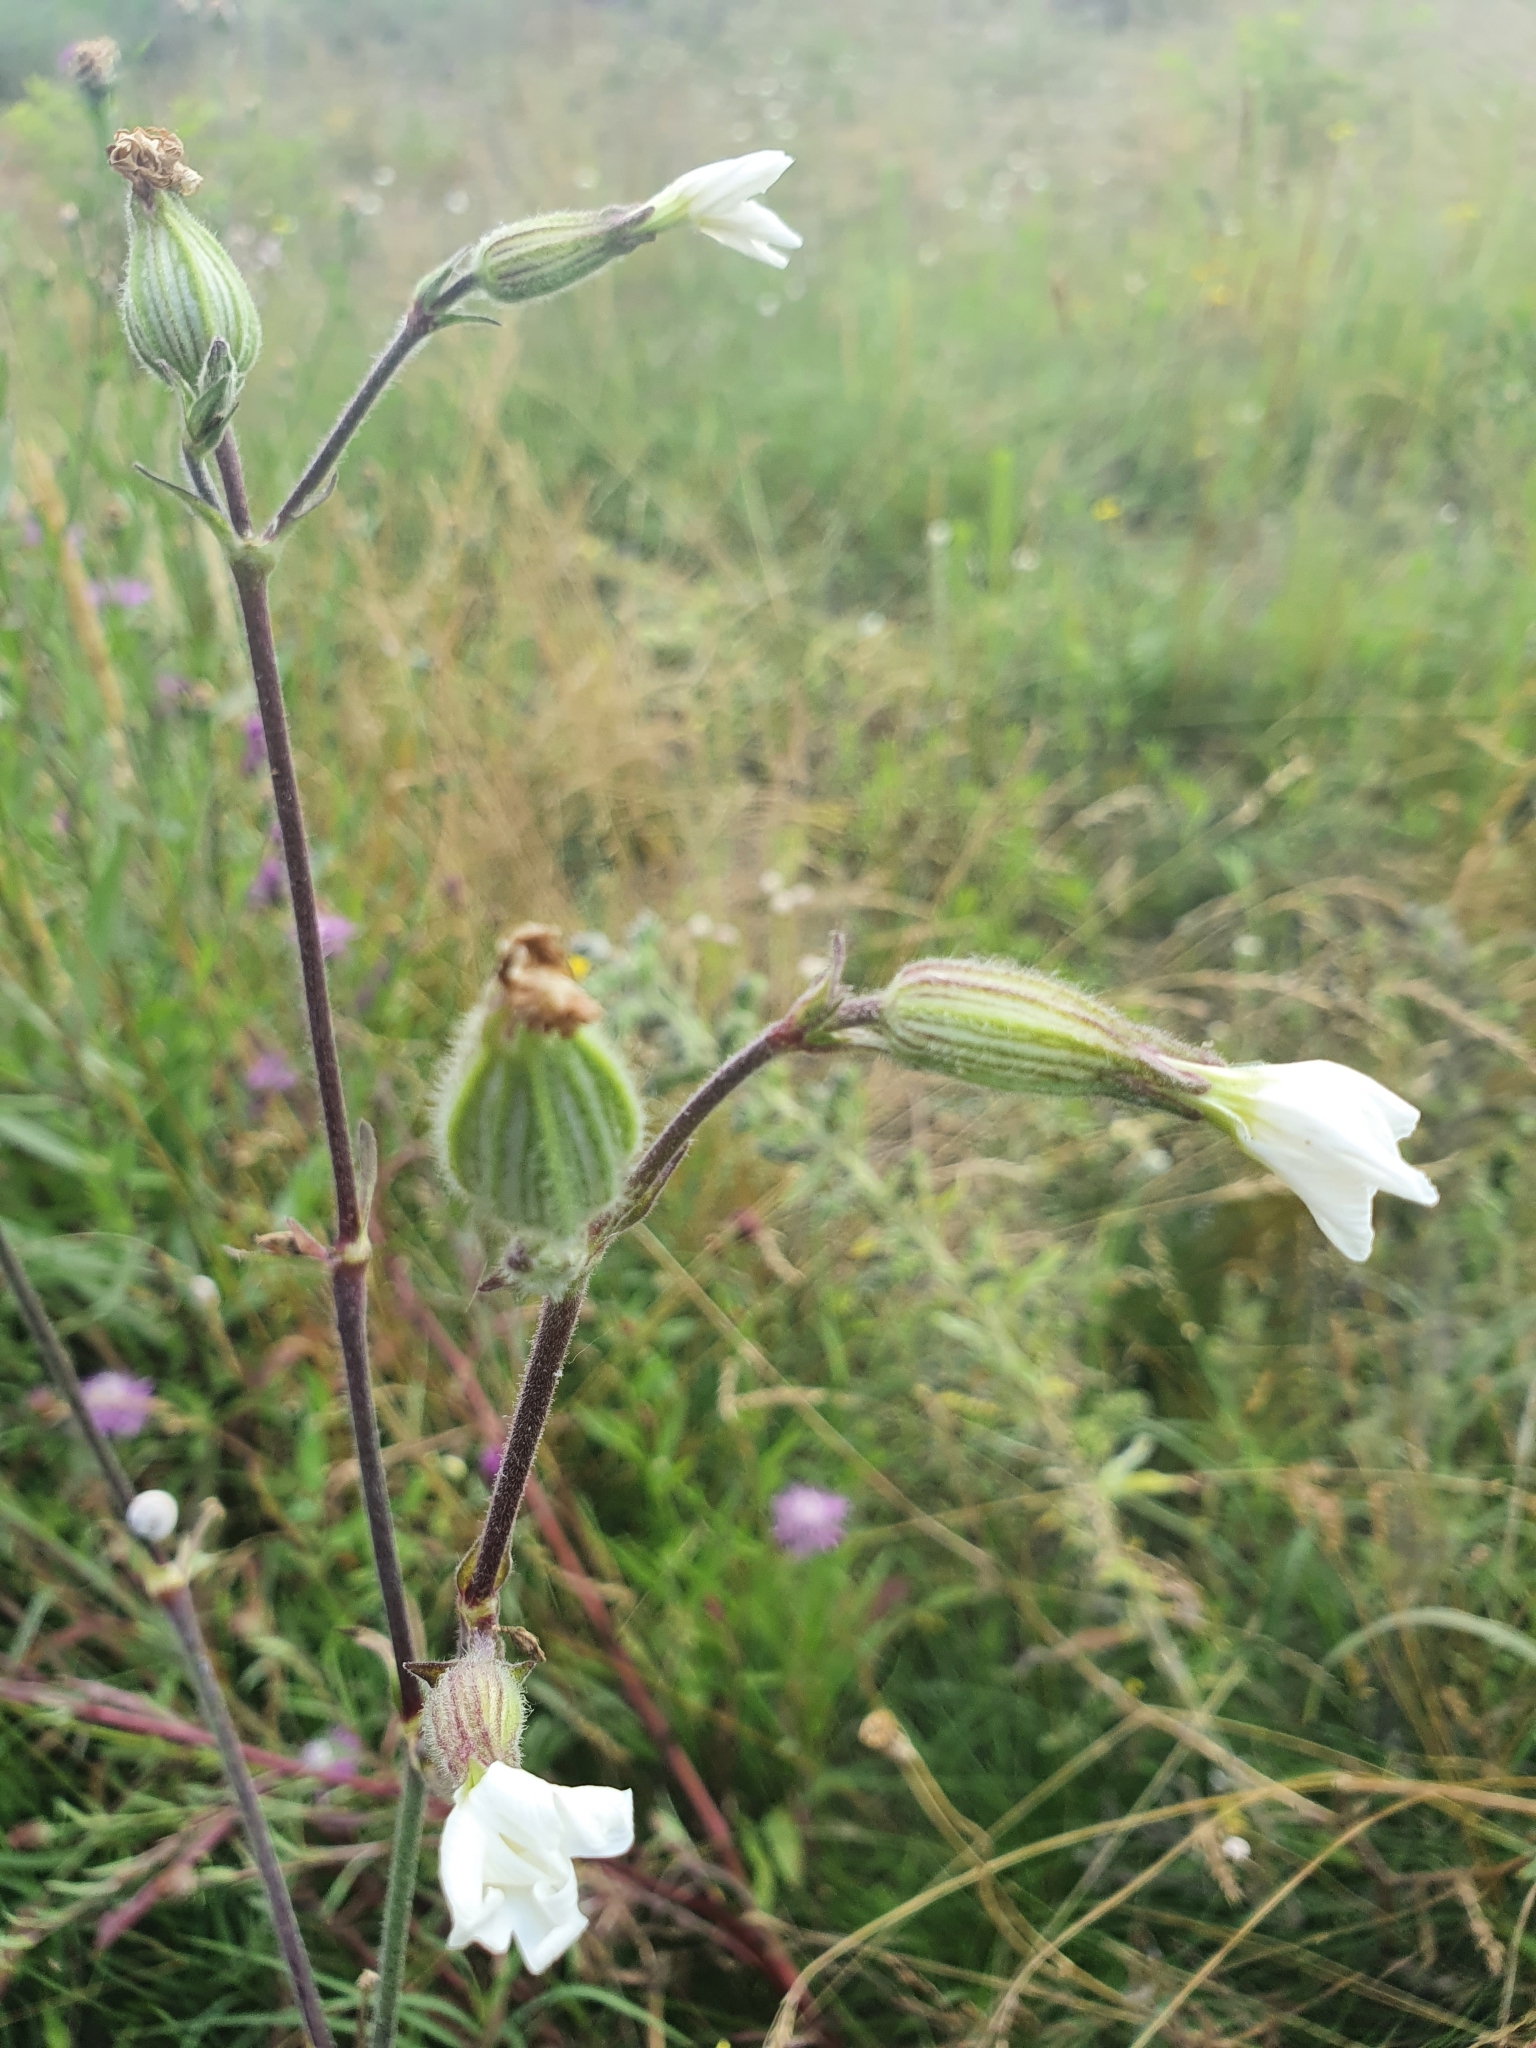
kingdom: Plantae
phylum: Tracheophyta
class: Magnoliopsida
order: Caryophyllales
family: Caryophyllaceae
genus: Silene
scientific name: Silene latifolia
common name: White campion
